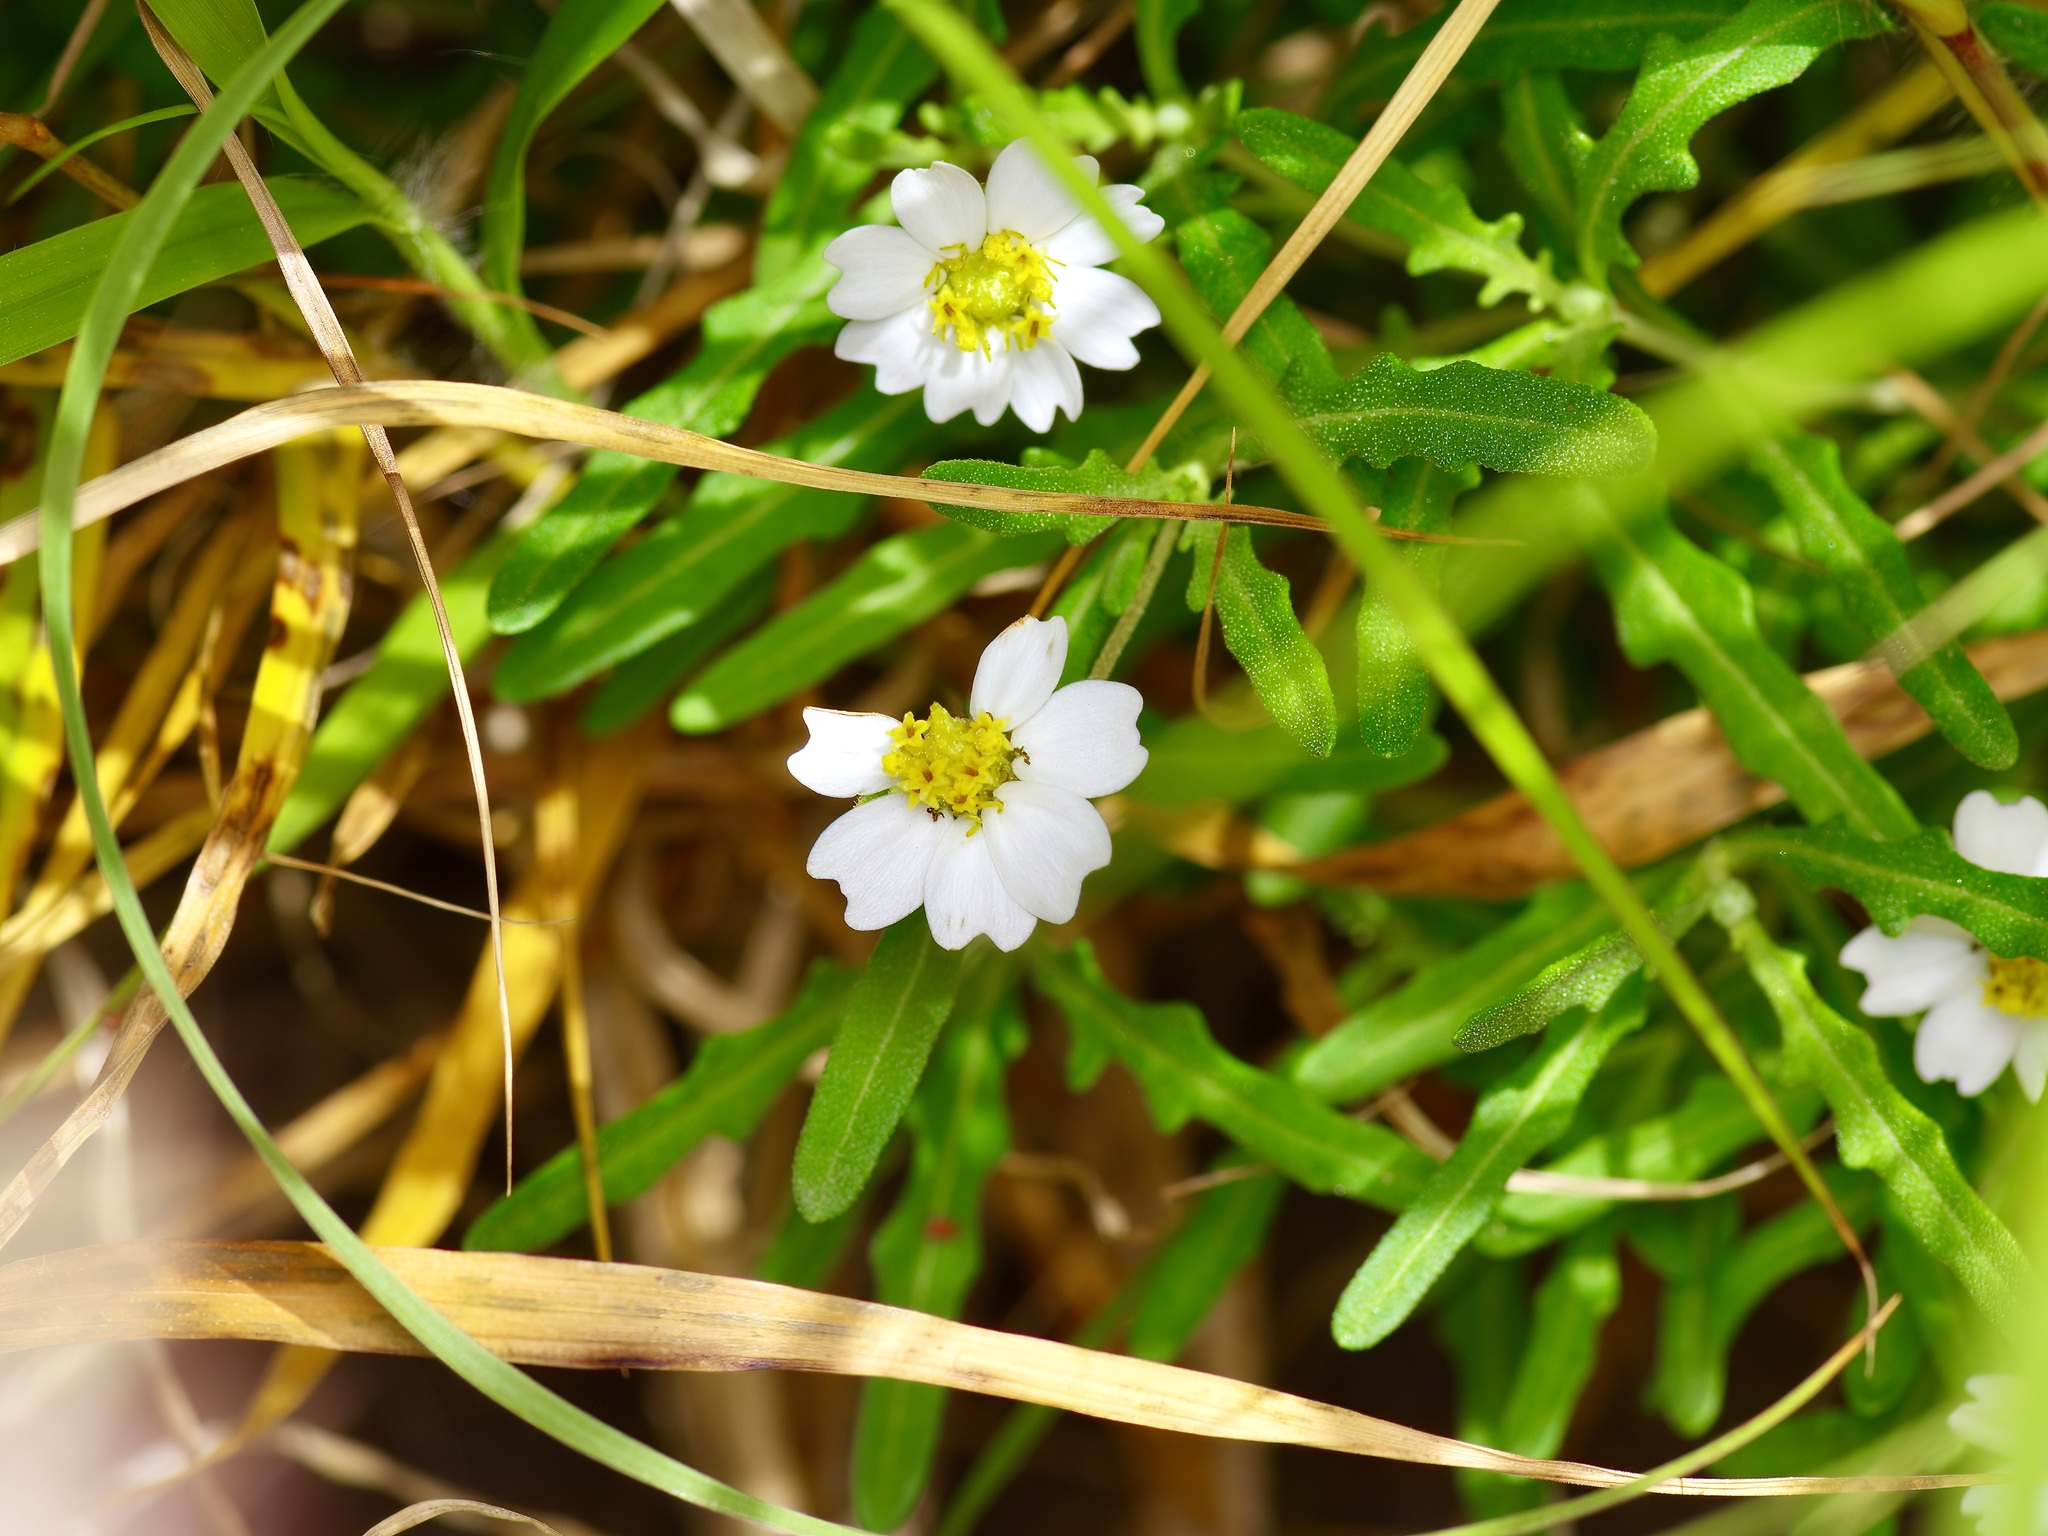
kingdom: Plantae
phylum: Tracheophyta
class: Magnoliopsida
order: Asterales
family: Asteraceae
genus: Melampodium
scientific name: Melampodium cinereum
